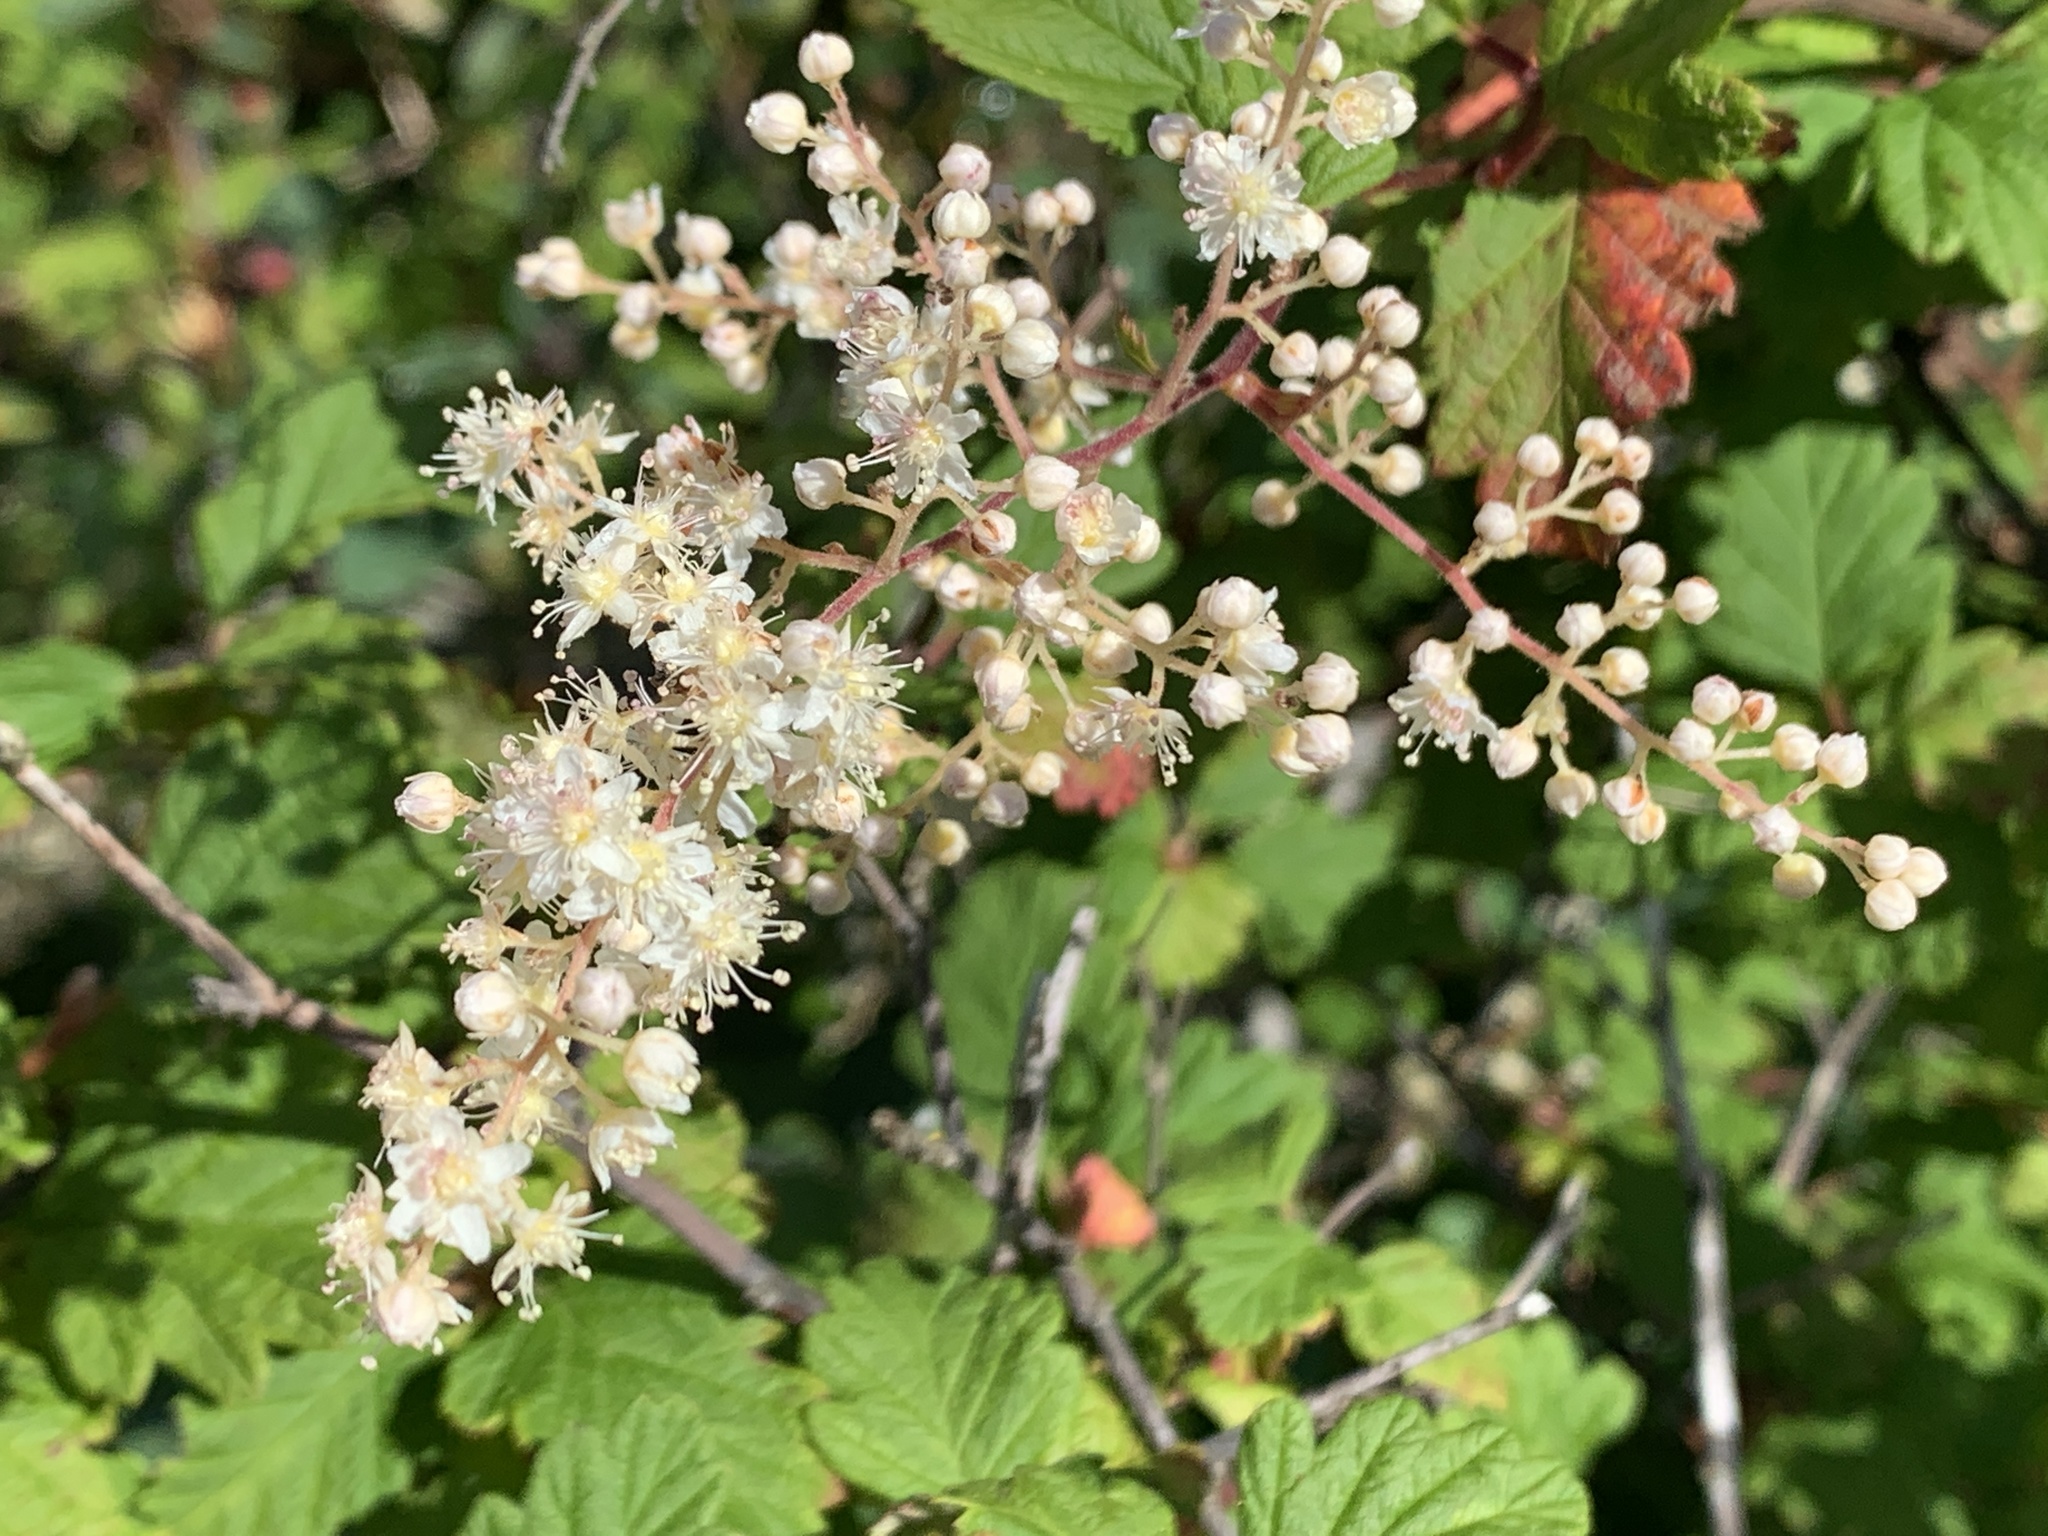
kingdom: Plantae
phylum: Tracheophyta
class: Magnoliopsida
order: Rosales
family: Rosaceae
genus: Holodiscus
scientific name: Holodiscus discolor
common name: Oceanspray
